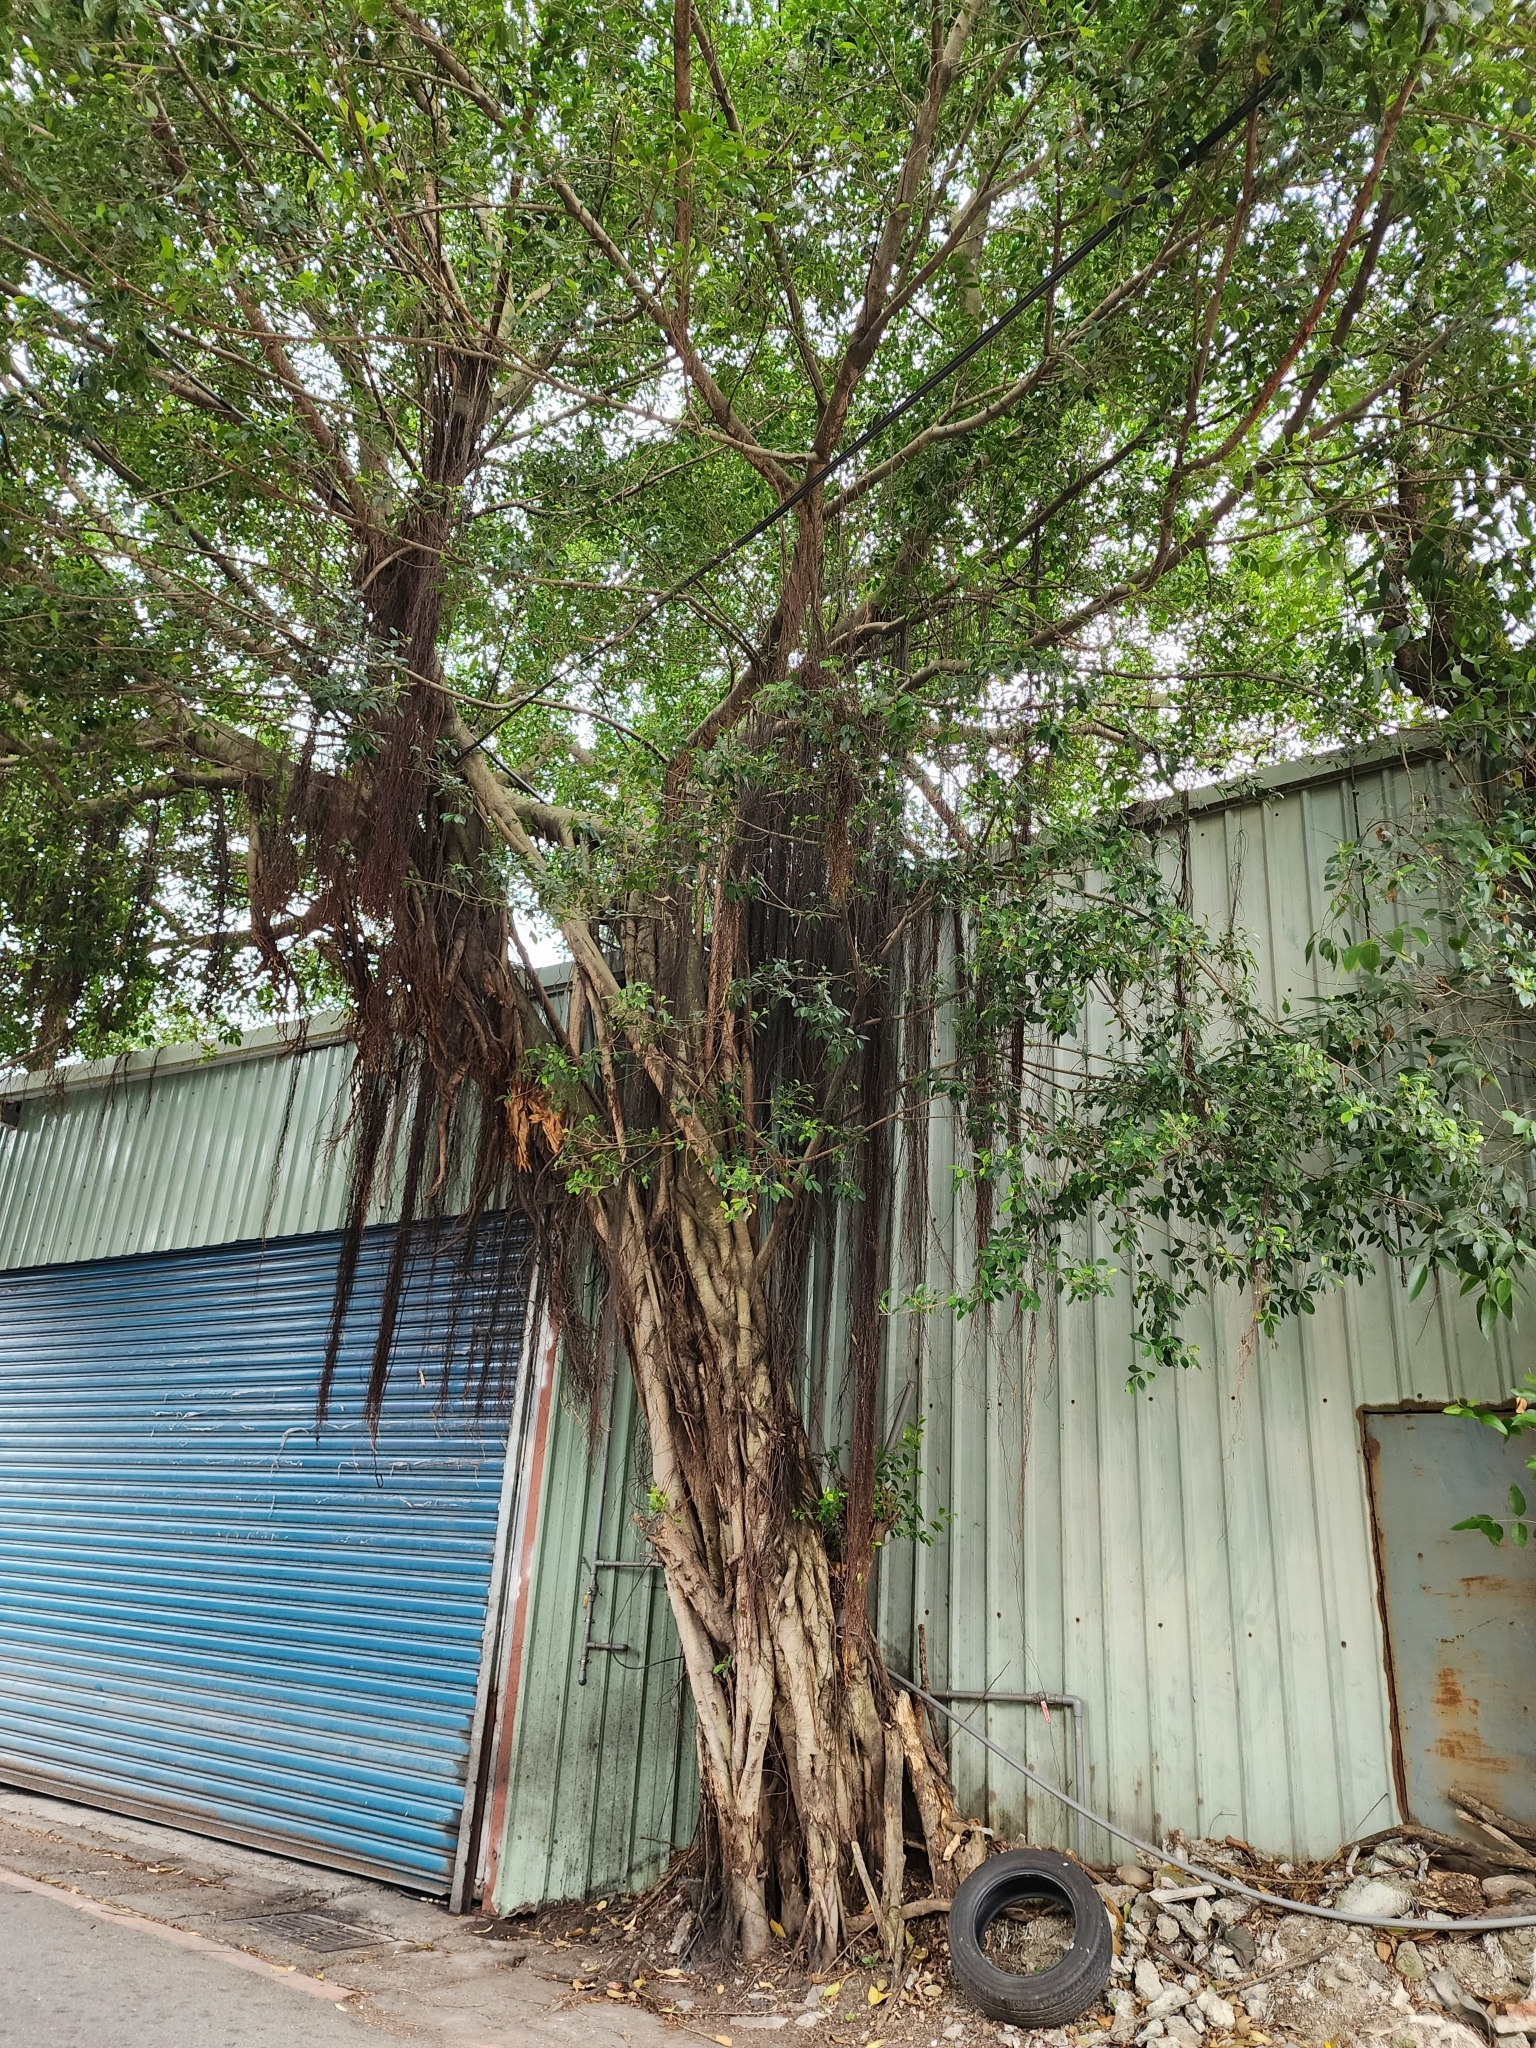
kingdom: Plantae
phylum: Tracheophyta
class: Magnoliopsida
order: Rosales
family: Moraceae
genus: Ficus
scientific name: Ficus microcarpa
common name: Chinese banyan
